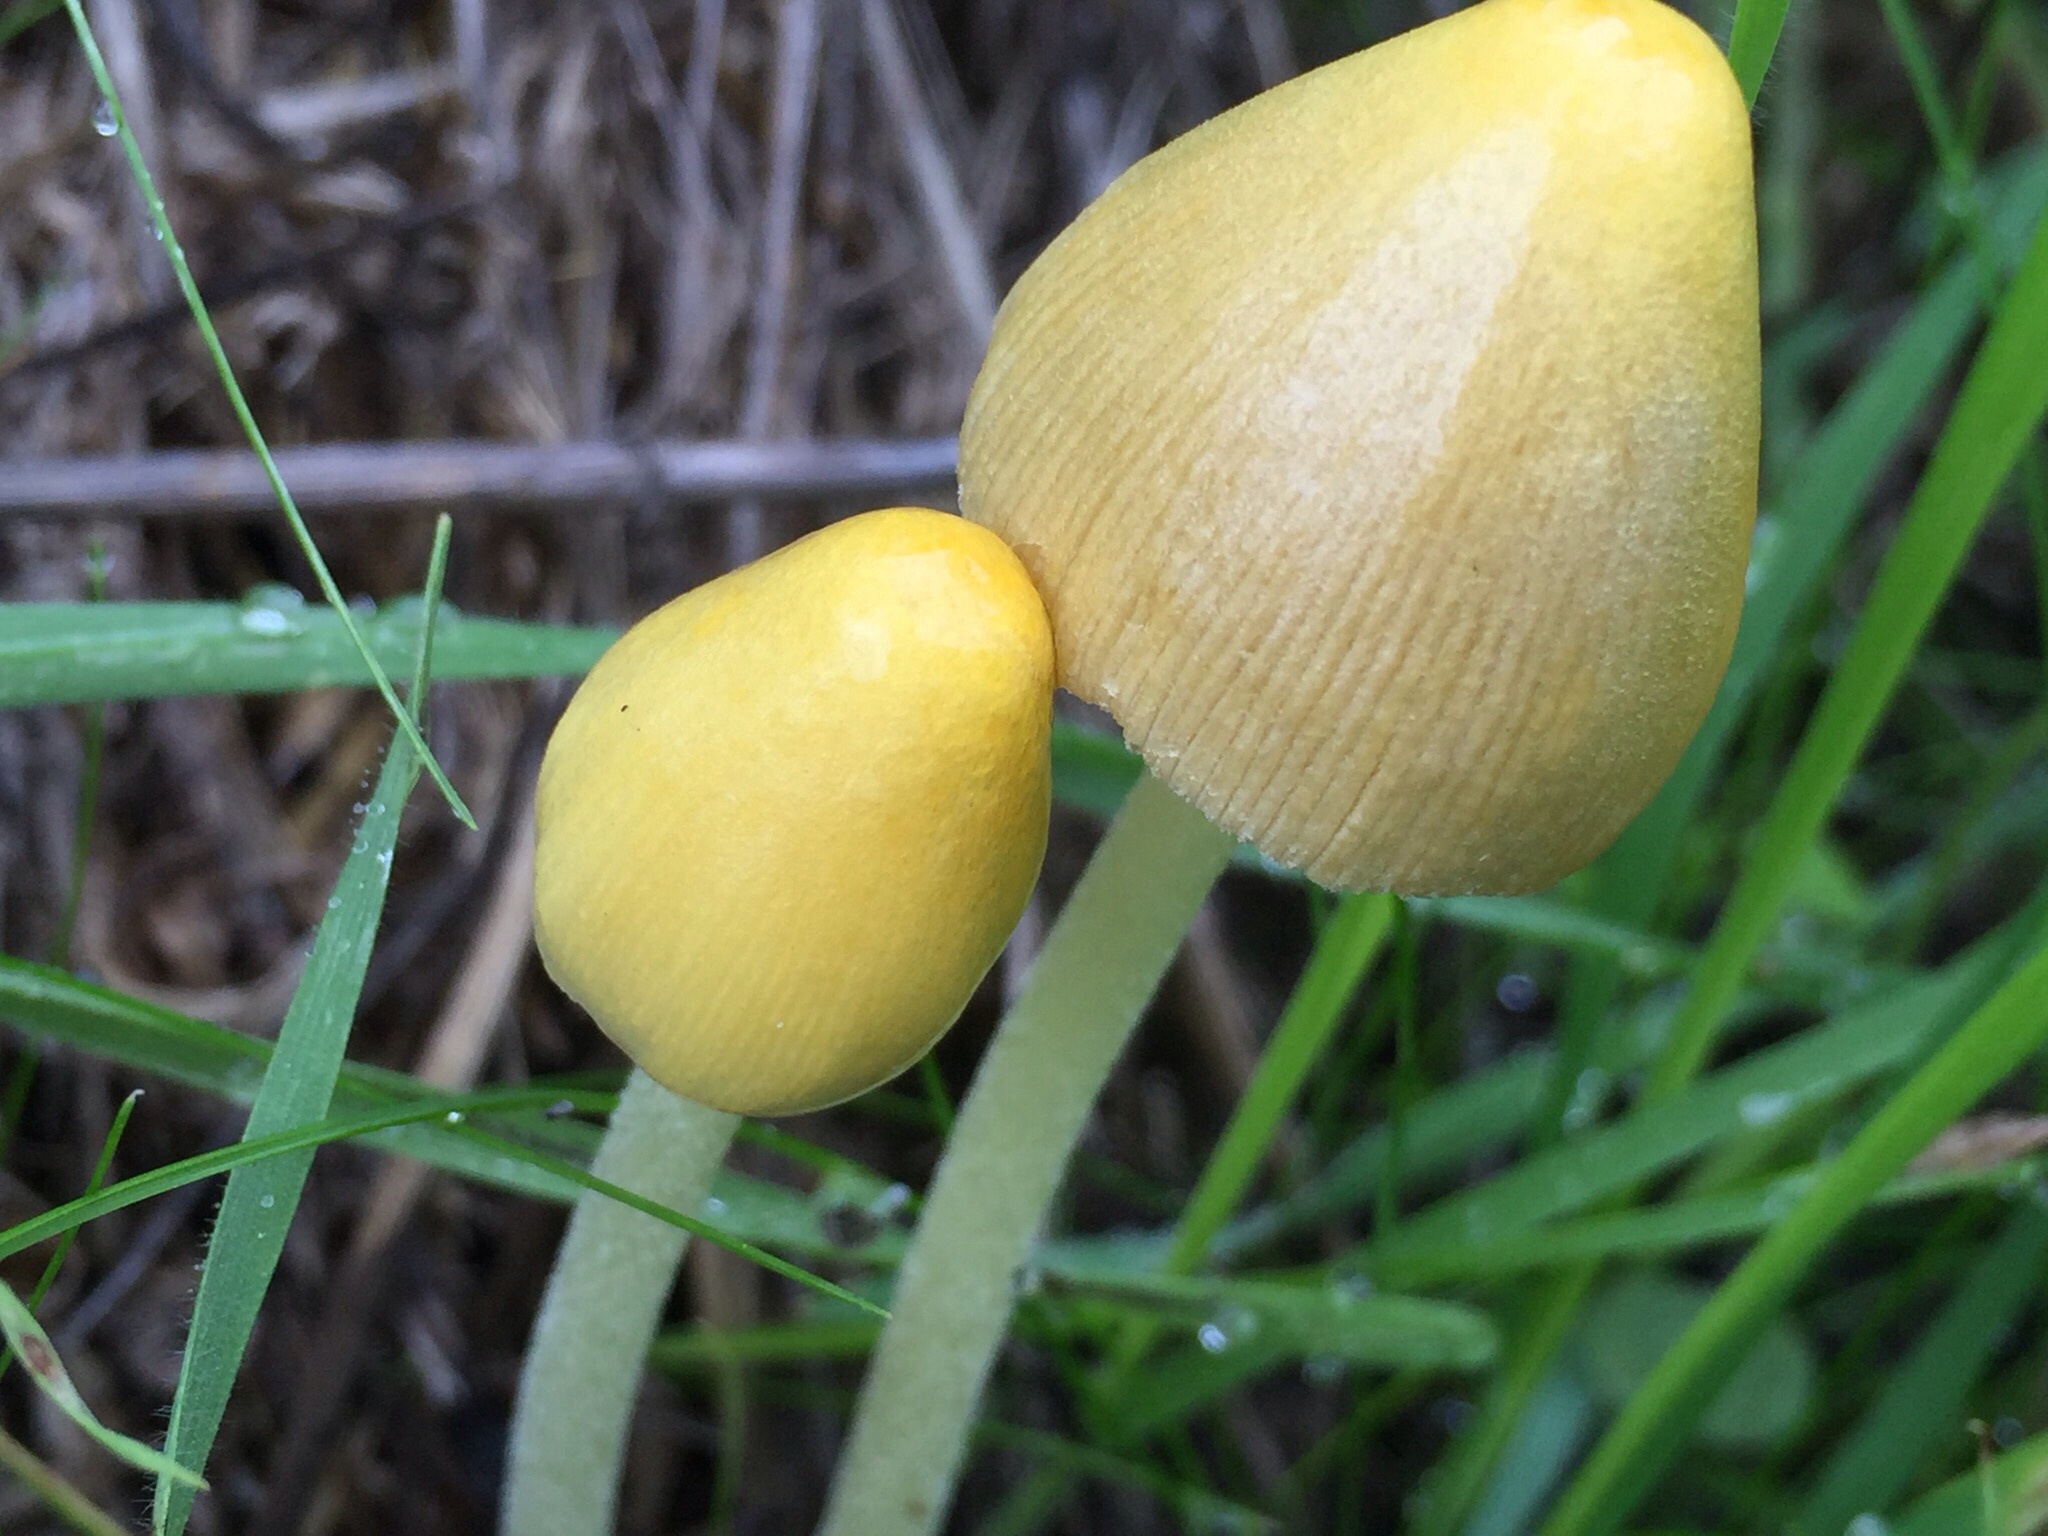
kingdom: Fungi
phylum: Basidiomycota
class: Agaricomycetes
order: Agaricales
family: Bolbitiaceae
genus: Bolbitius
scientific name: Bolbitius titubans
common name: Yellow fieldcap
